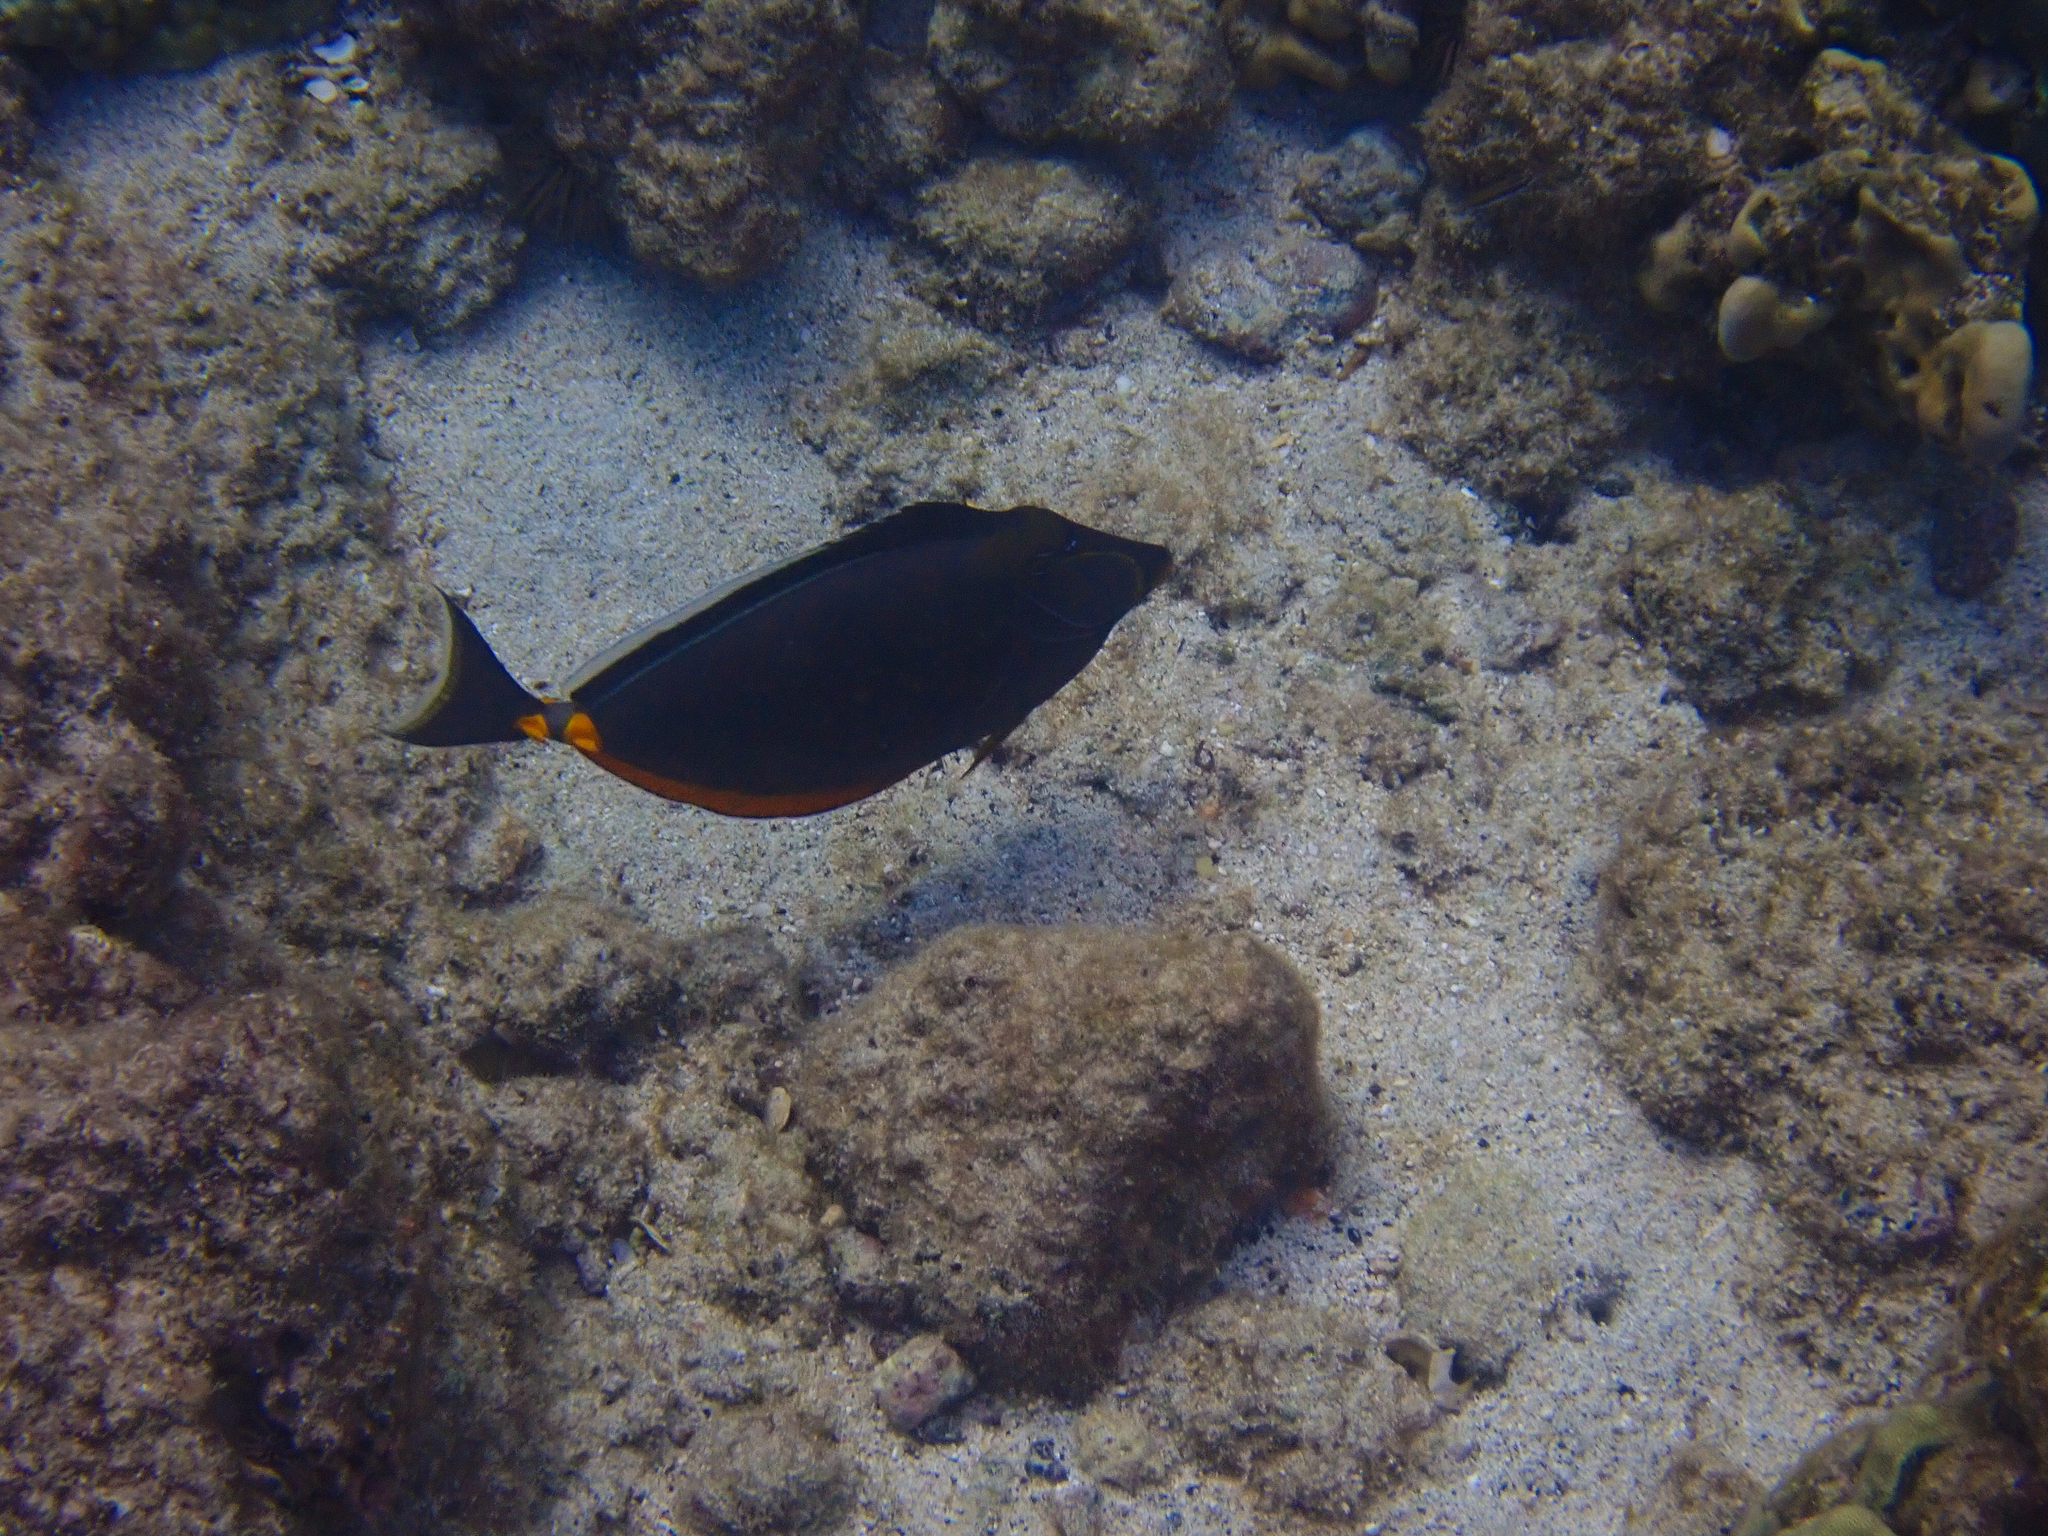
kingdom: Animalia
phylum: Chordata
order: Perciformes
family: Acanthuridae
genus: Naso
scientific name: Naso lituratus
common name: Orangespine unicornfish
